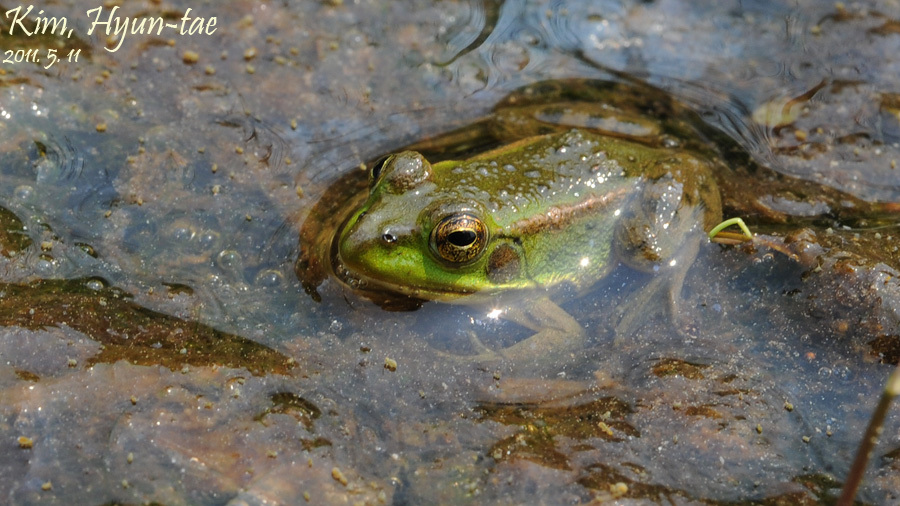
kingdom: Animalia
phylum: Chordata
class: Amphibia
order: Anura
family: Ranidae
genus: Pelophylax
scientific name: Pelophylax chosenicus
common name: Gold-spotted pond frog
